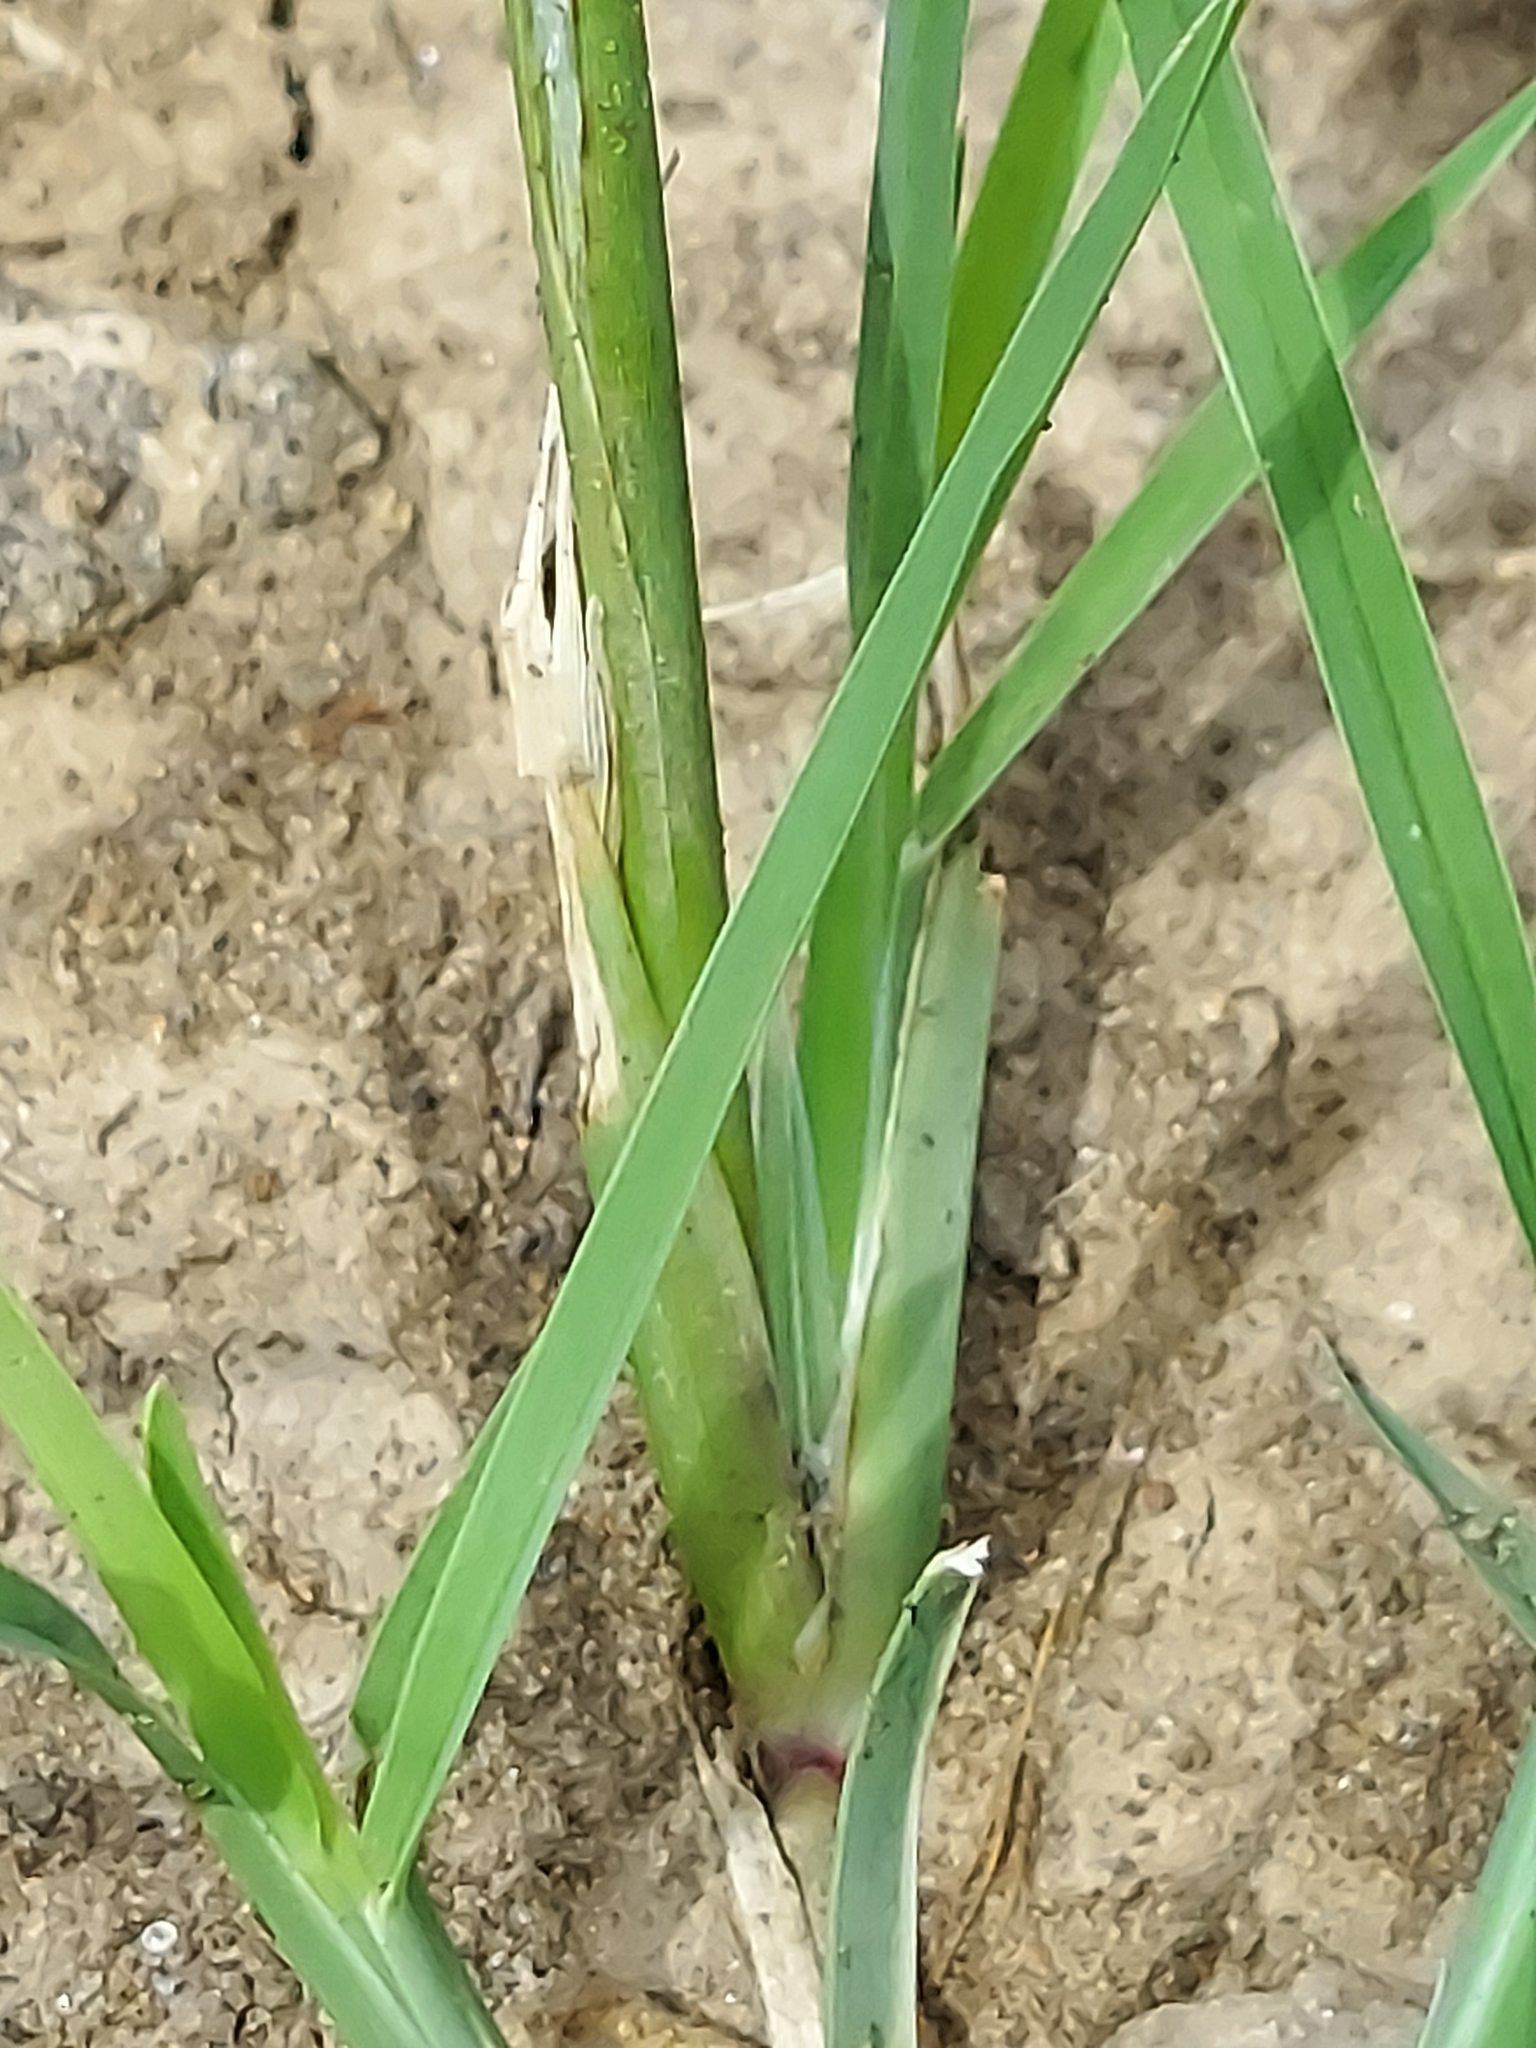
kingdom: Plantae
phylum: Tracheophyta
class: Liliopsida
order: Poales
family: Poaceae
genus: Chloris
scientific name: Chloris verticillata
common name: Tumble windmill grass
